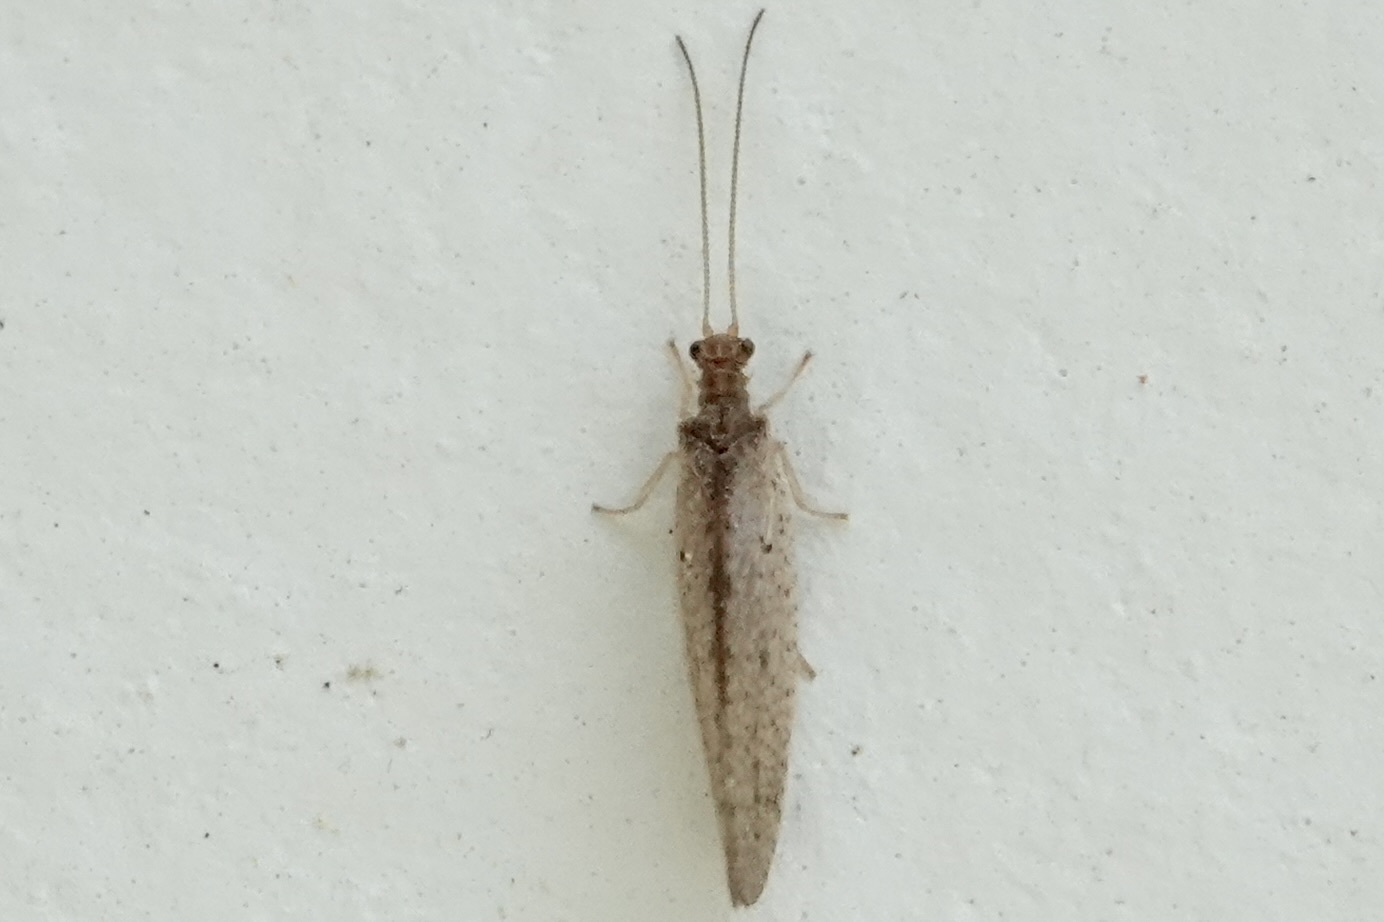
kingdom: Animalia
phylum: Arthropoda
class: Insecta
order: Neuroptera
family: Hemerobiidae
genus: Micromus
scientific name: Micromus subanticus
